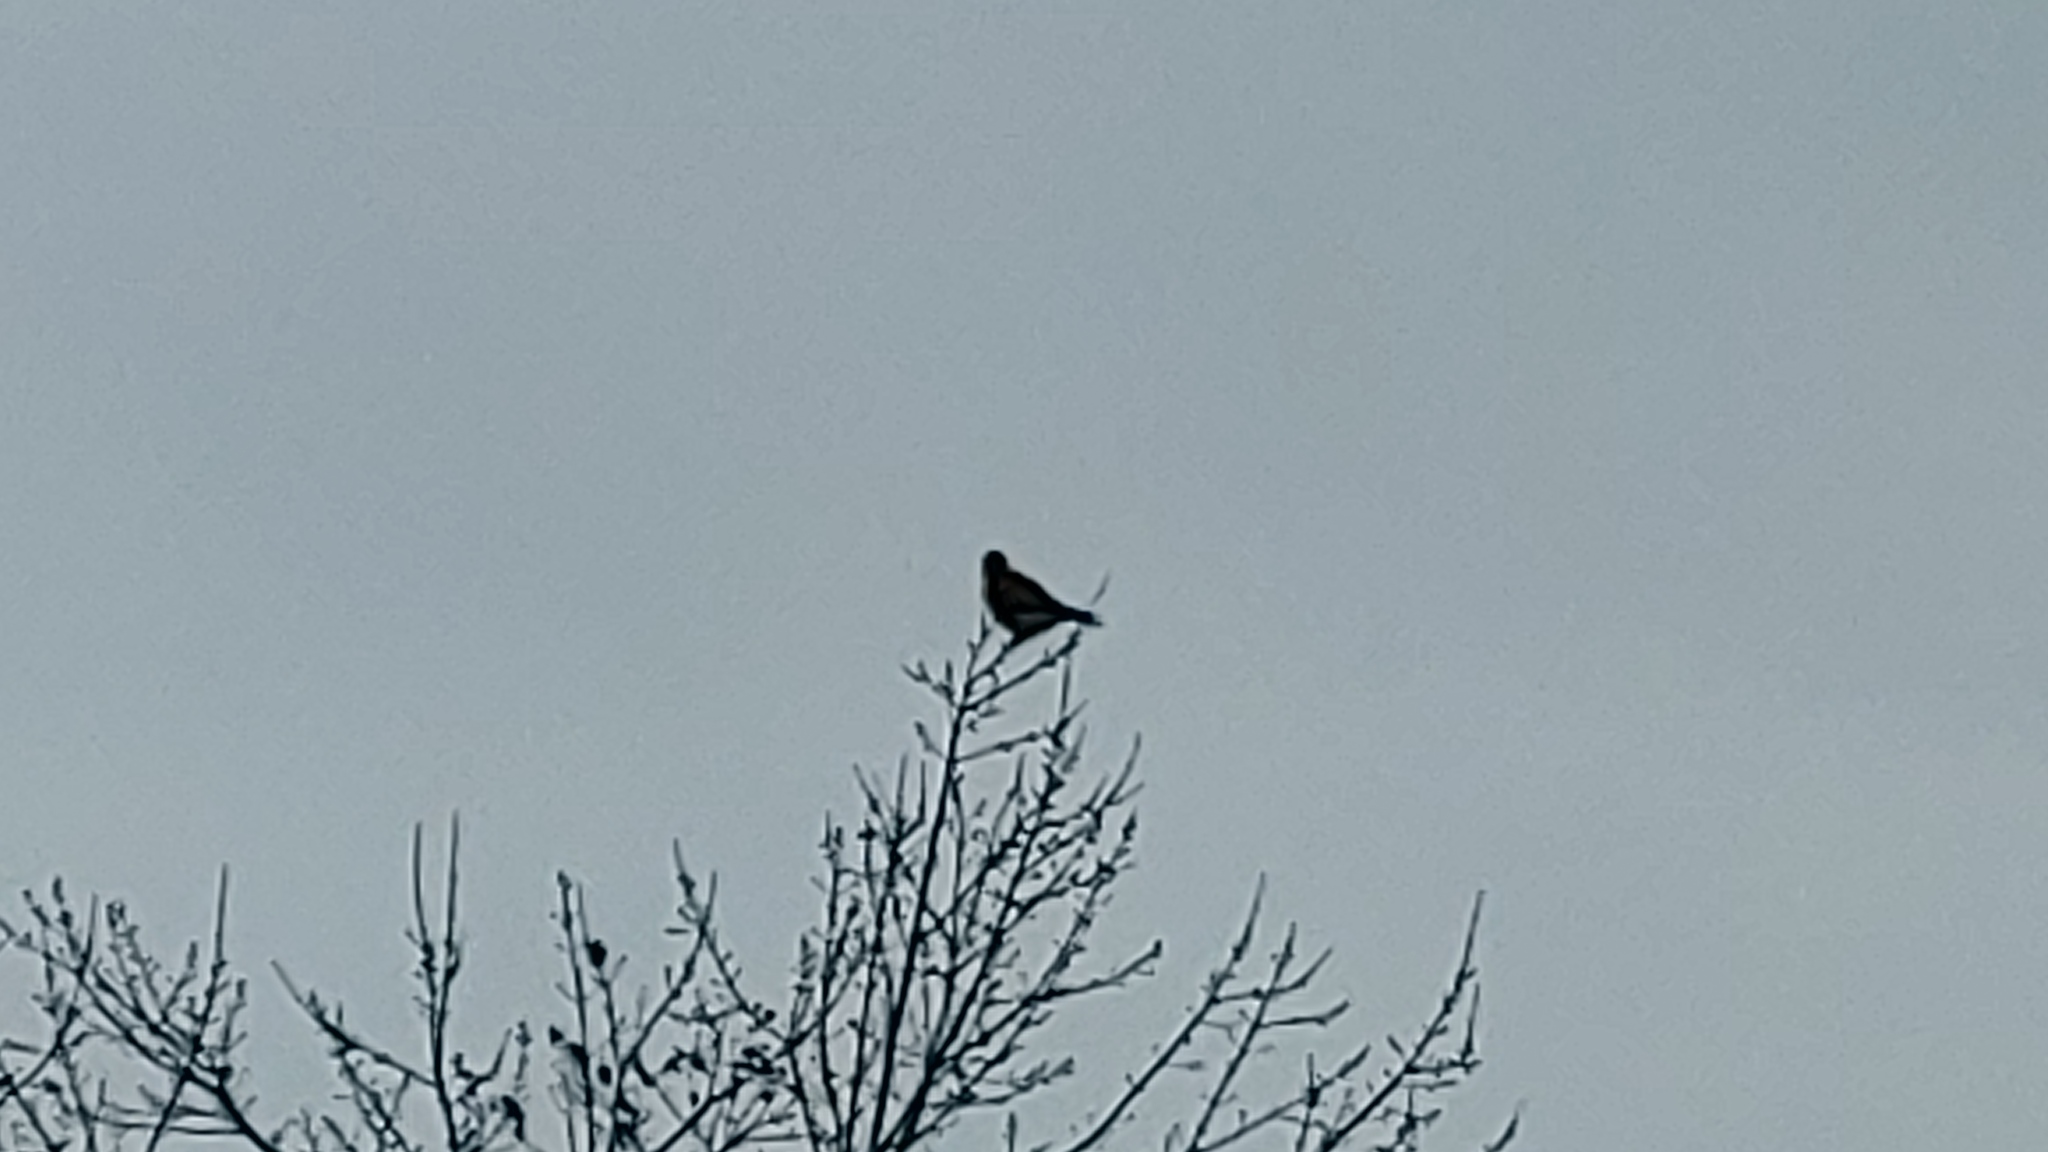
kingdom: Animalia
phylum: Chordata
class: Aves
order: Falconiformes
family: Falconidae
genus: Falco
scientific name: Falco sparverius
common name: American kestrel
